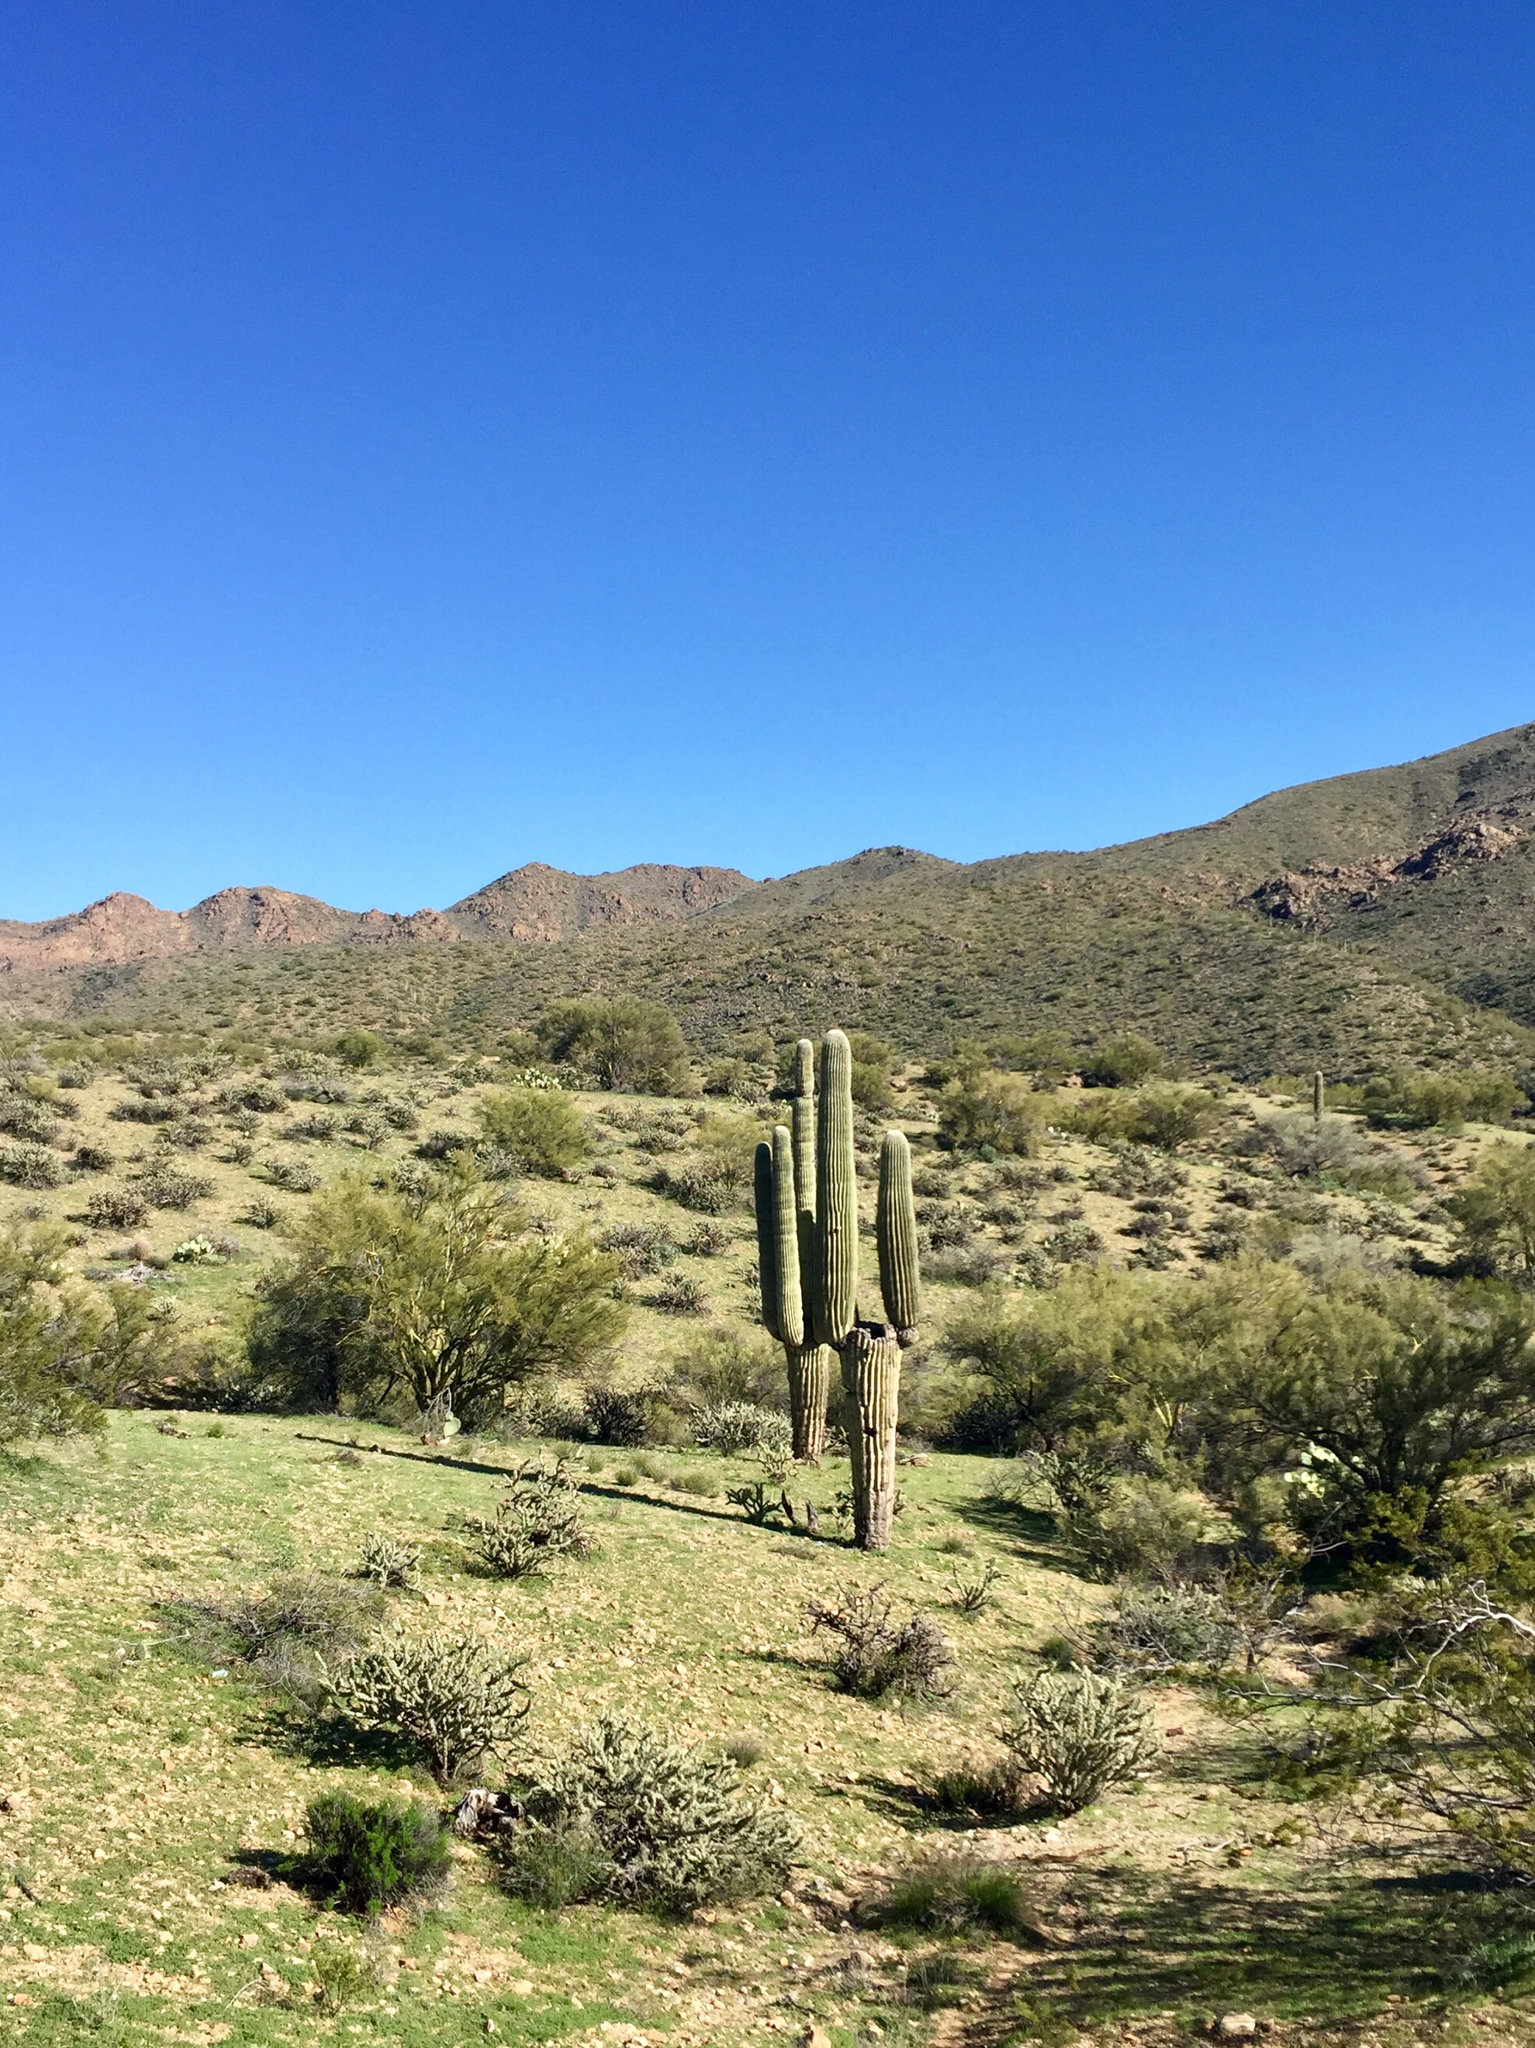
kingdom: Plantae
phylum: Tracheophyta
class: Magnoliopsida
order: Caryophyllales
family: Cactaceae
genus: Carnegiea
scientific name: Carnegiea gigantea
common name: Saguaro
